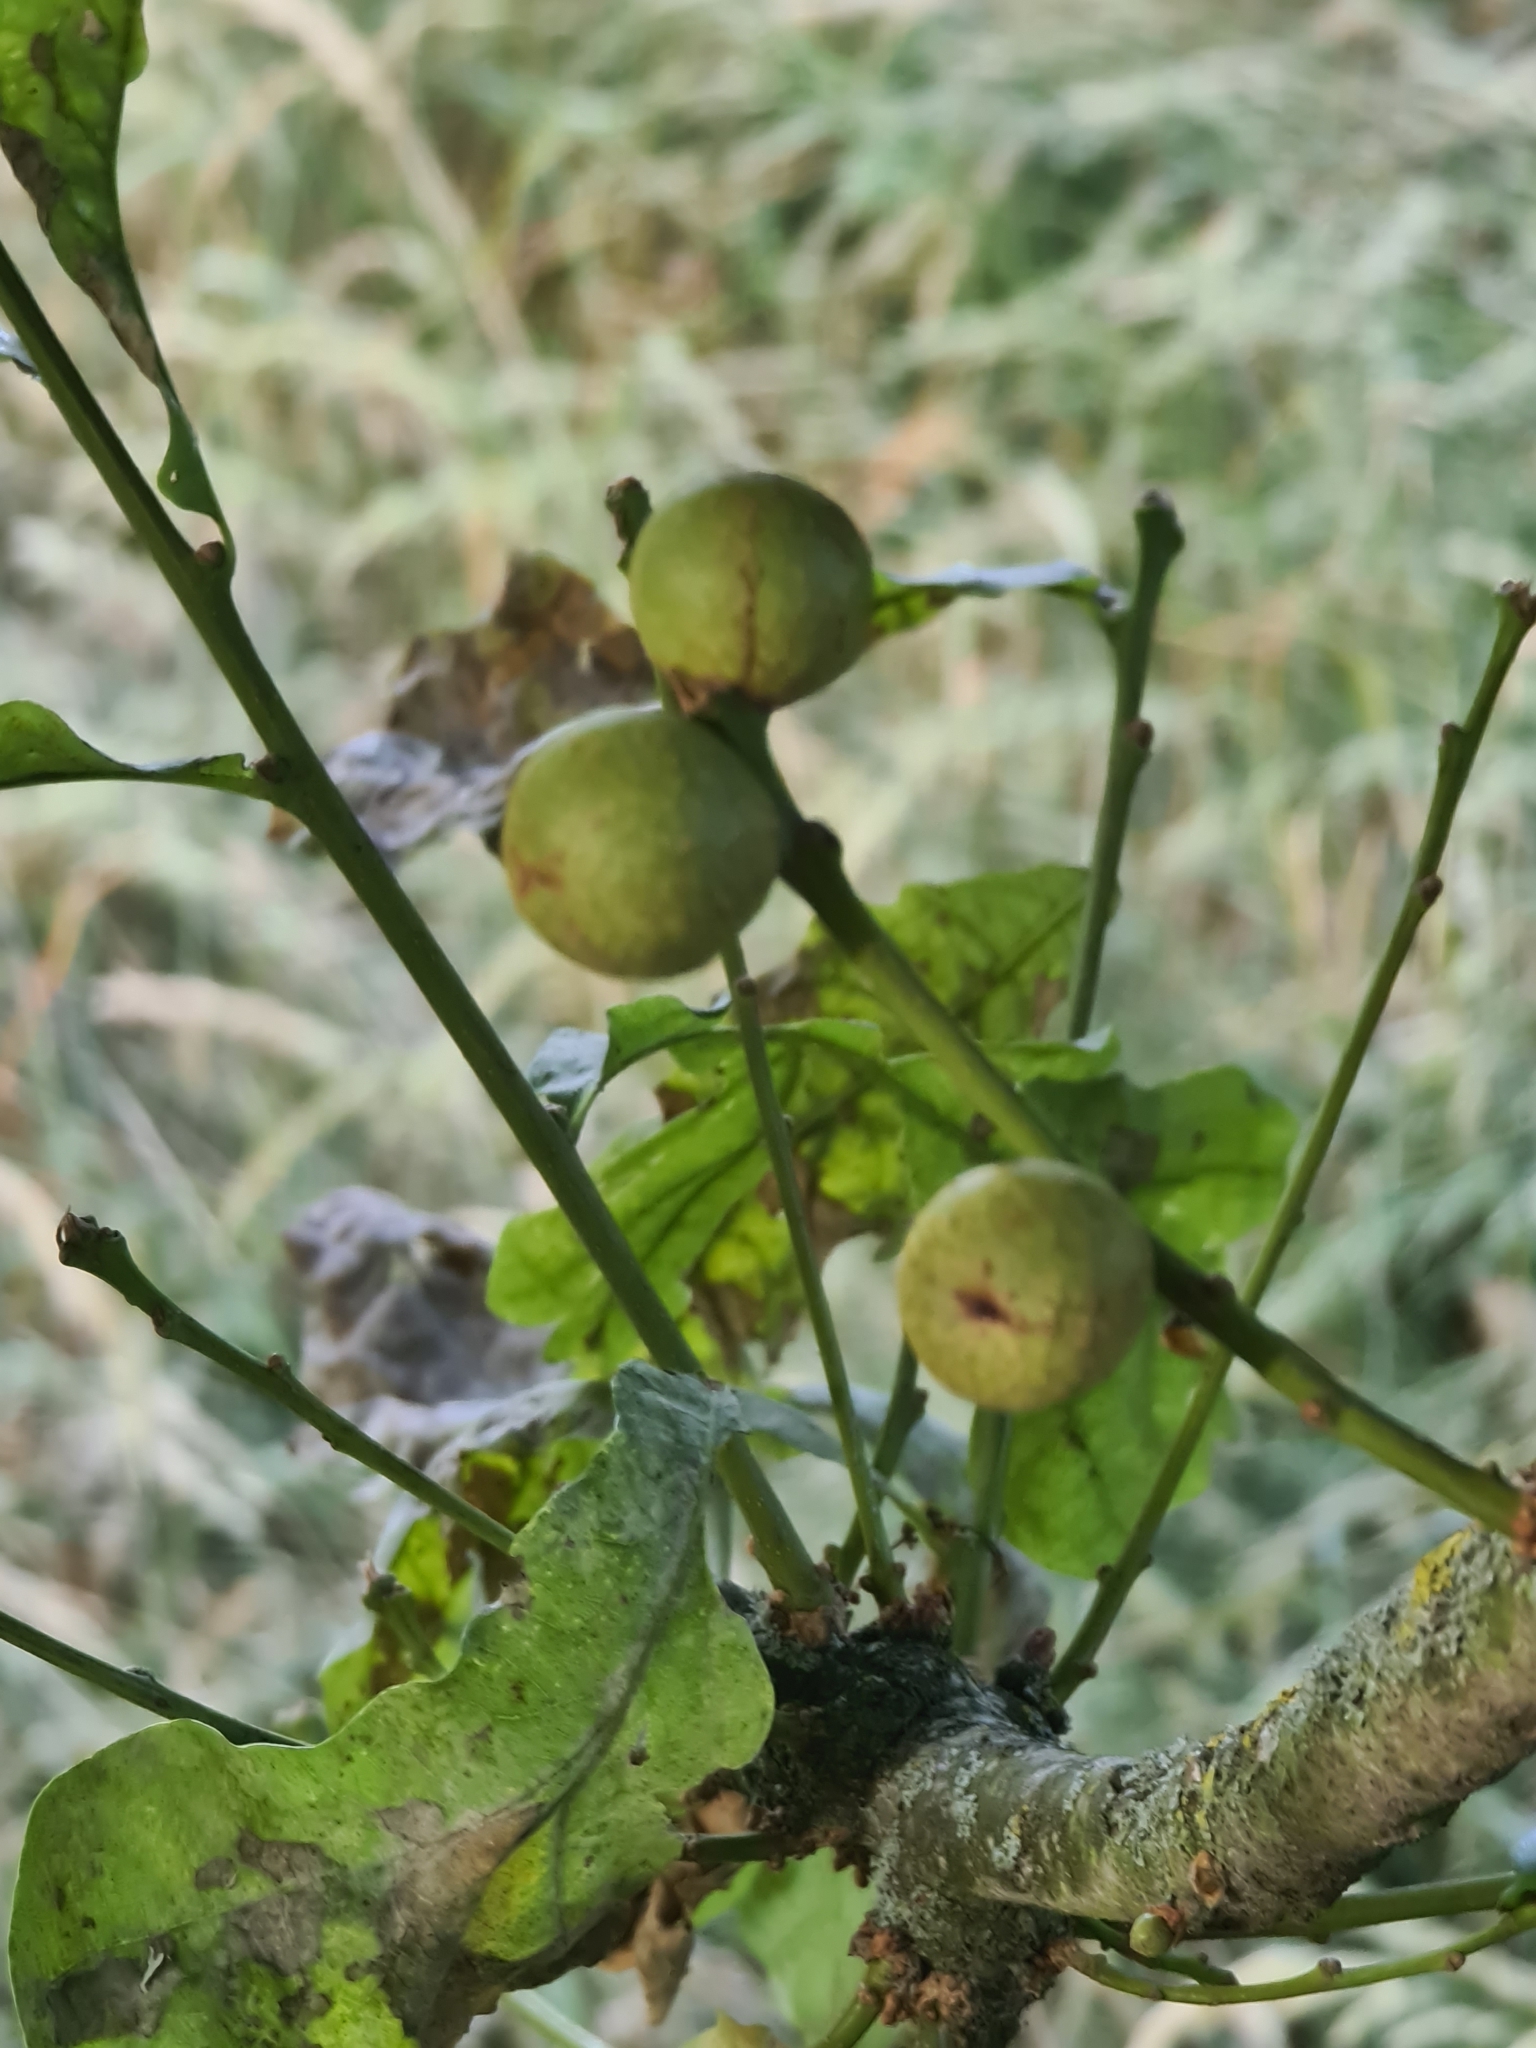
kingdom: Animalia
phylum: Arthropoda
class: Insecta
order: Hymenoptera
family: Cynipidae
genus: Andricus
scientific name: Andricus kollari
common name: Marble gall
